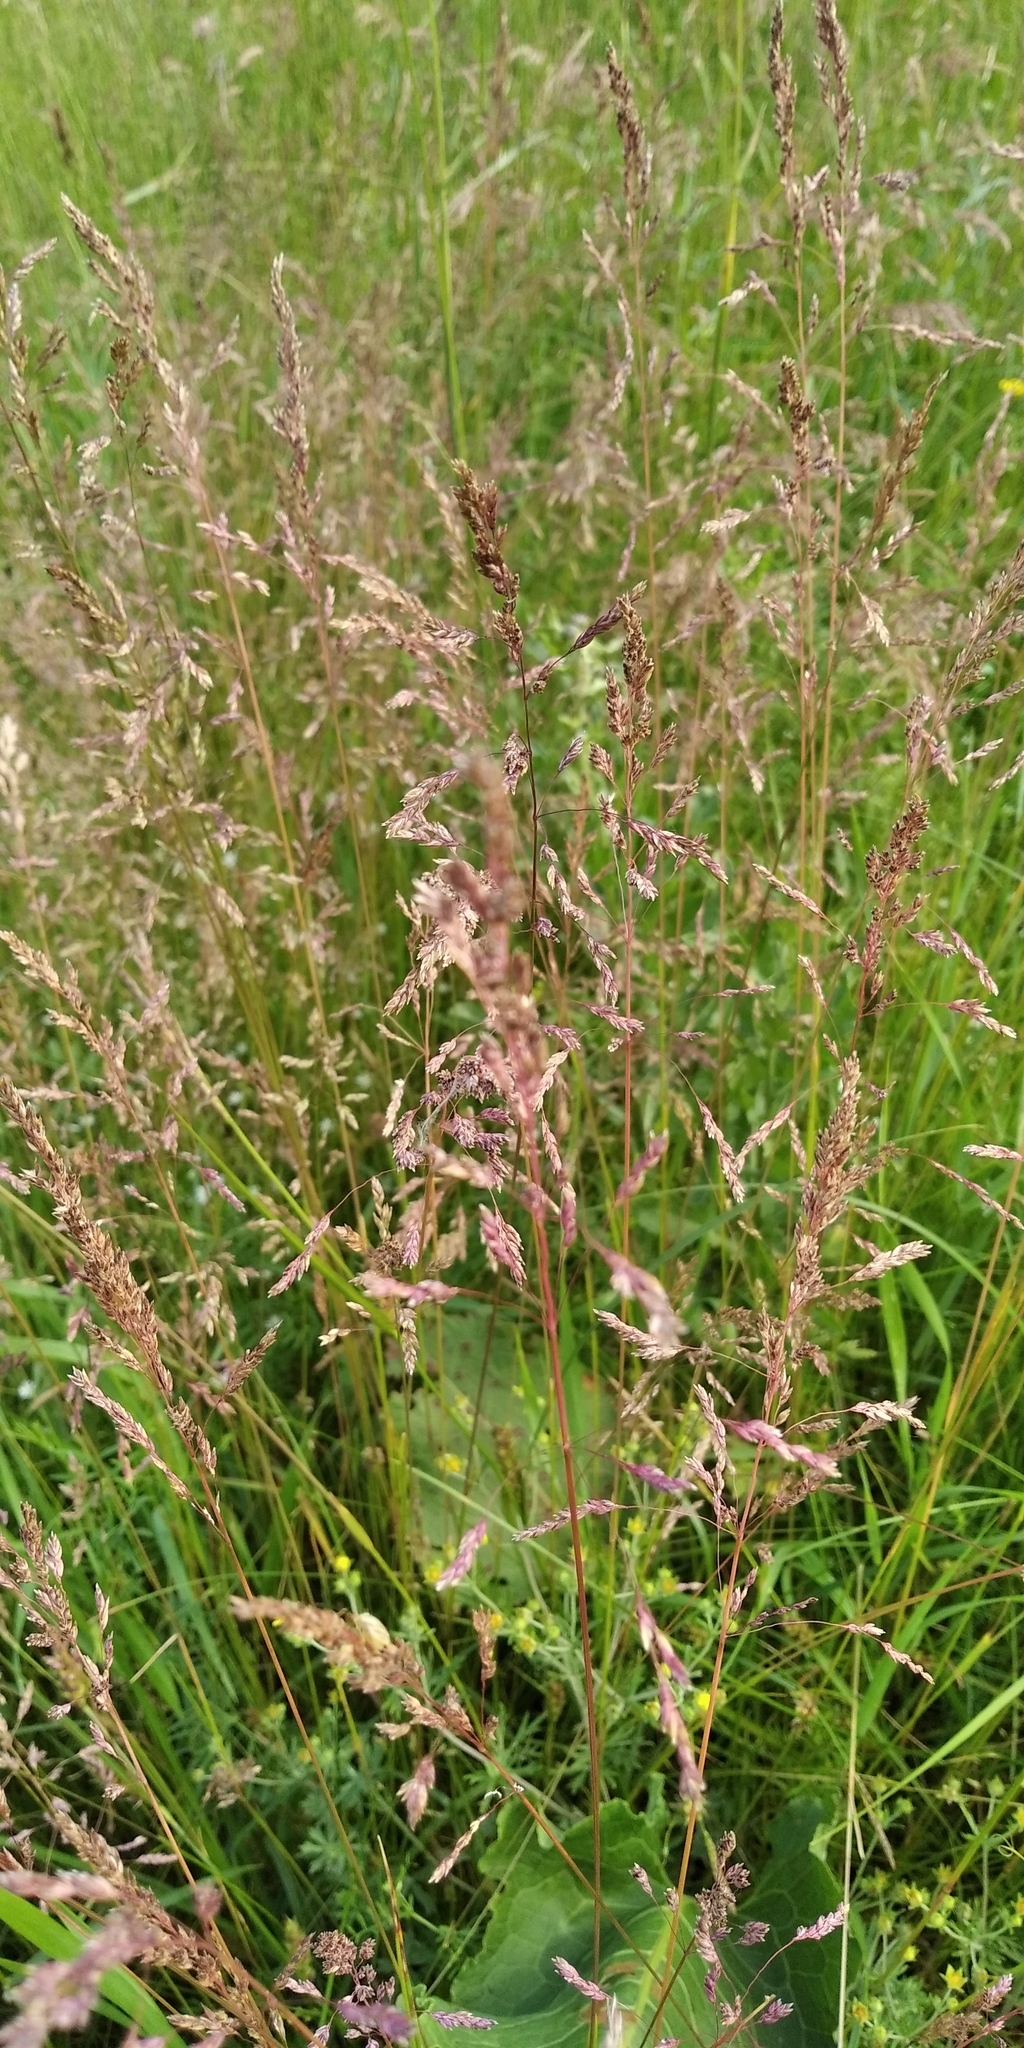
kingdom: Plantae
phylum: Tracheophyta
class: Liliopsida
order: Poales
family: Poaceae
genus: Poa
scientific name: Poa angustifolia
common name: Narrow-leaved meadow-grass
